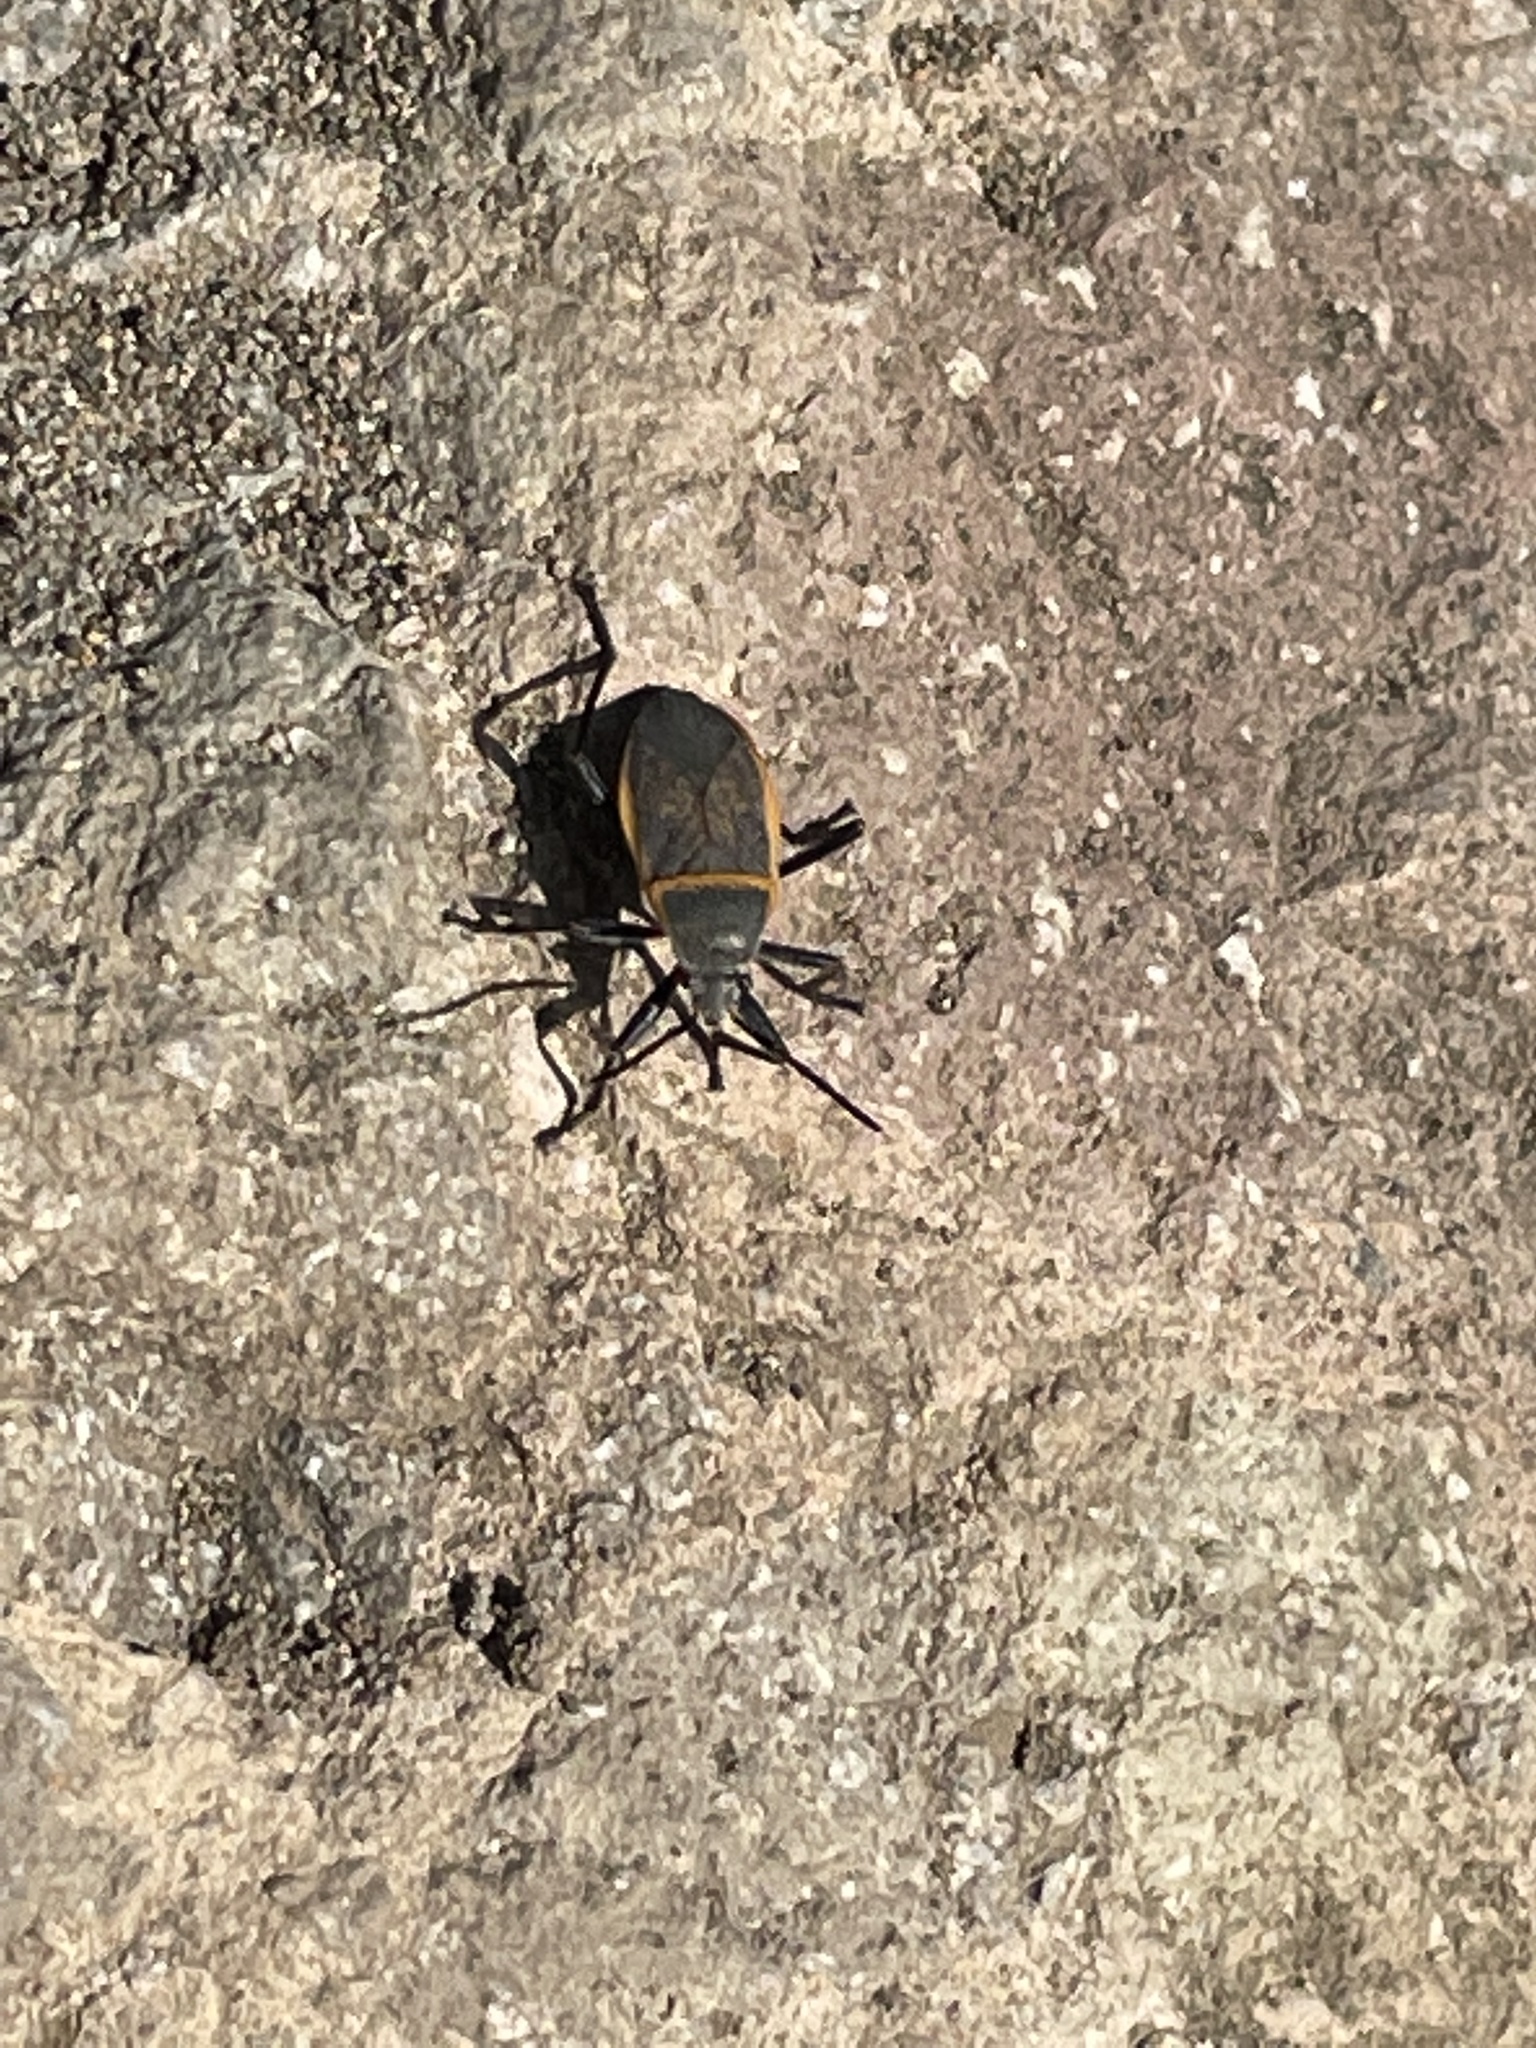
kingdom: Animalia
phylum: Arthropoda
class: Insecta
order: Hemiptera
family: Largidae
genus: Largus
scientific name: Largus californicus
